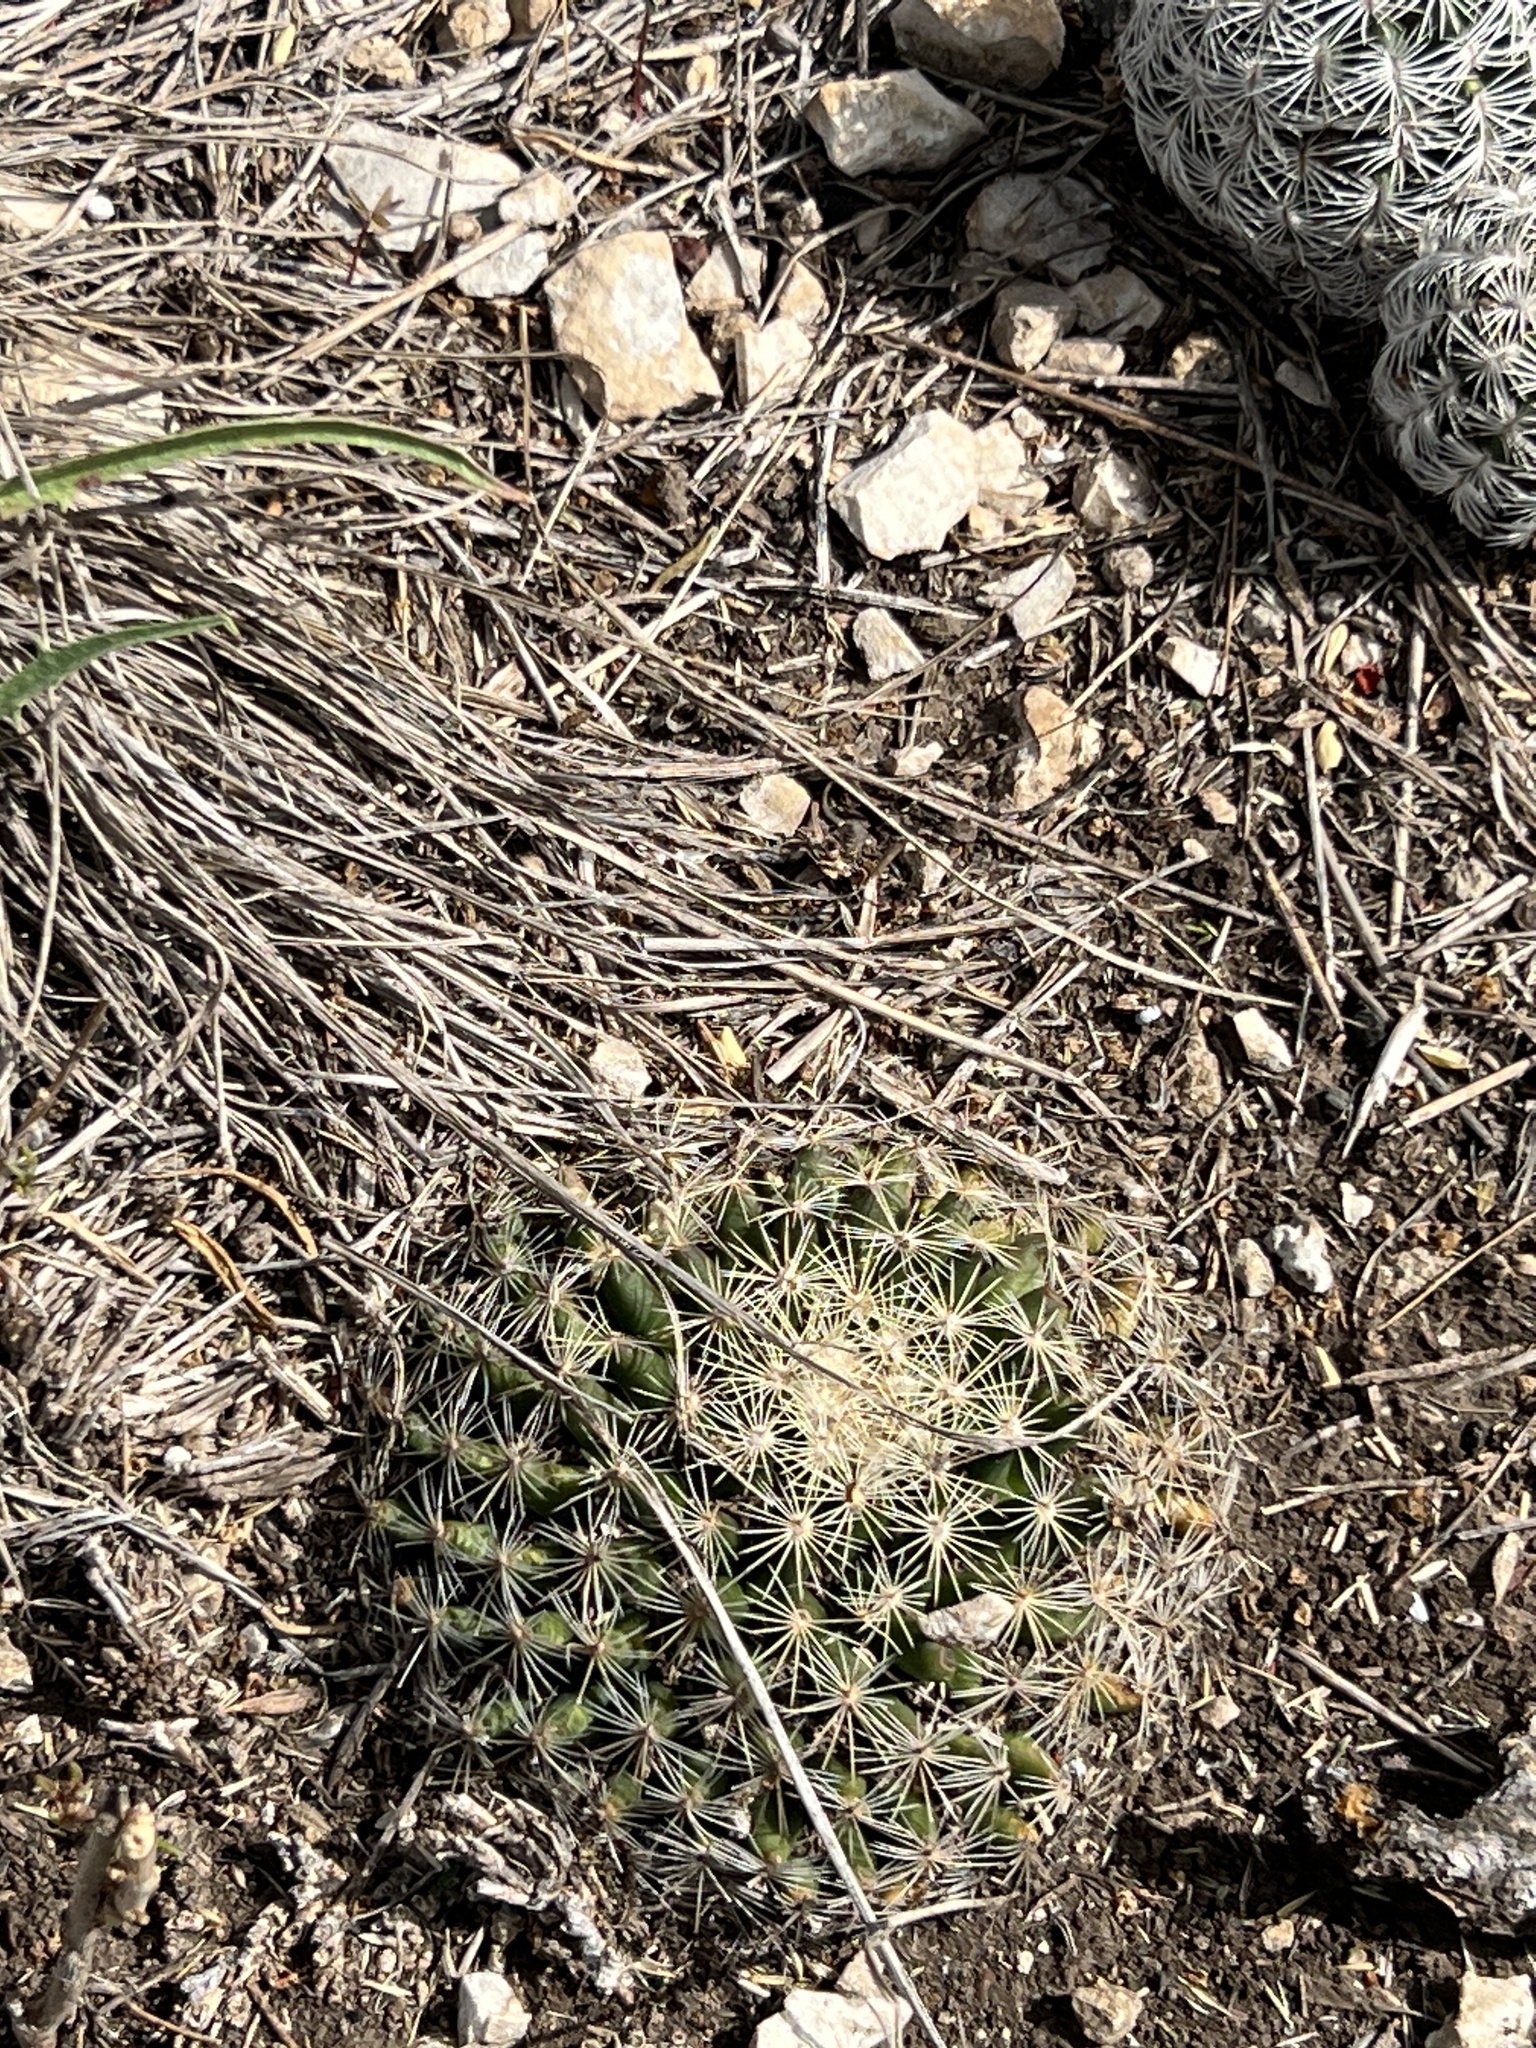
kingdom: Plantae
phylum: Tracheophyta
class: Magnoliopsida
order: Caryophyllales
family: Cactaceae
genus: Mammillaria
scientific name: Mammillaria heyderi
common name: Little nipple cactus
